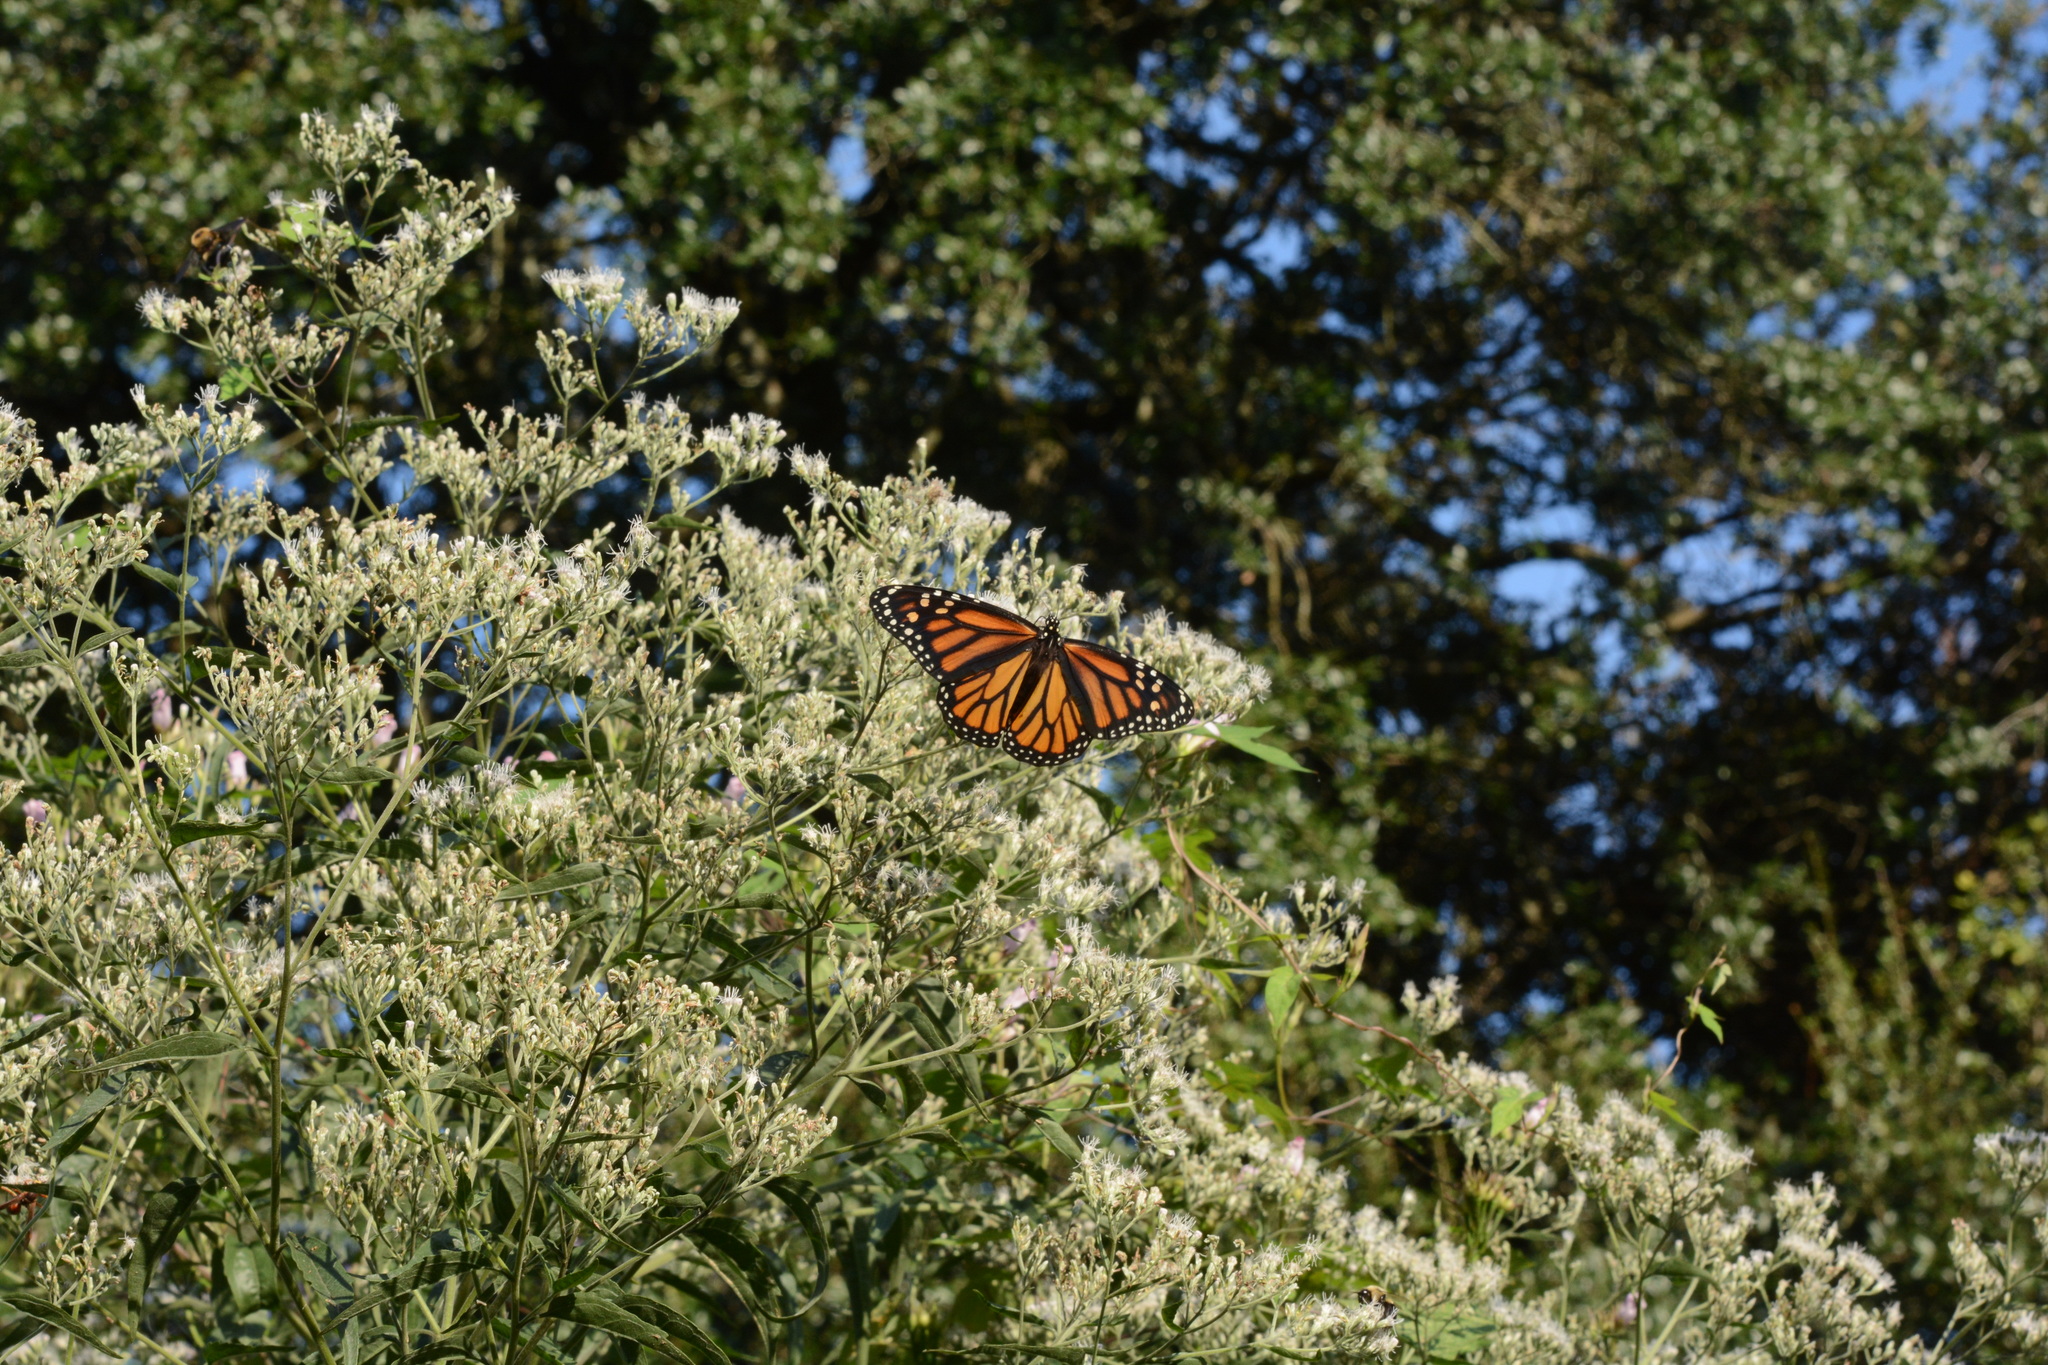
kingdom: Animalia
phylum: Arthropoda
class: Insecta
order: Lepidoptera
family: Nymphalidae
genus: Danaus
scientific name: Danaus plexippus
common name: Monarch
